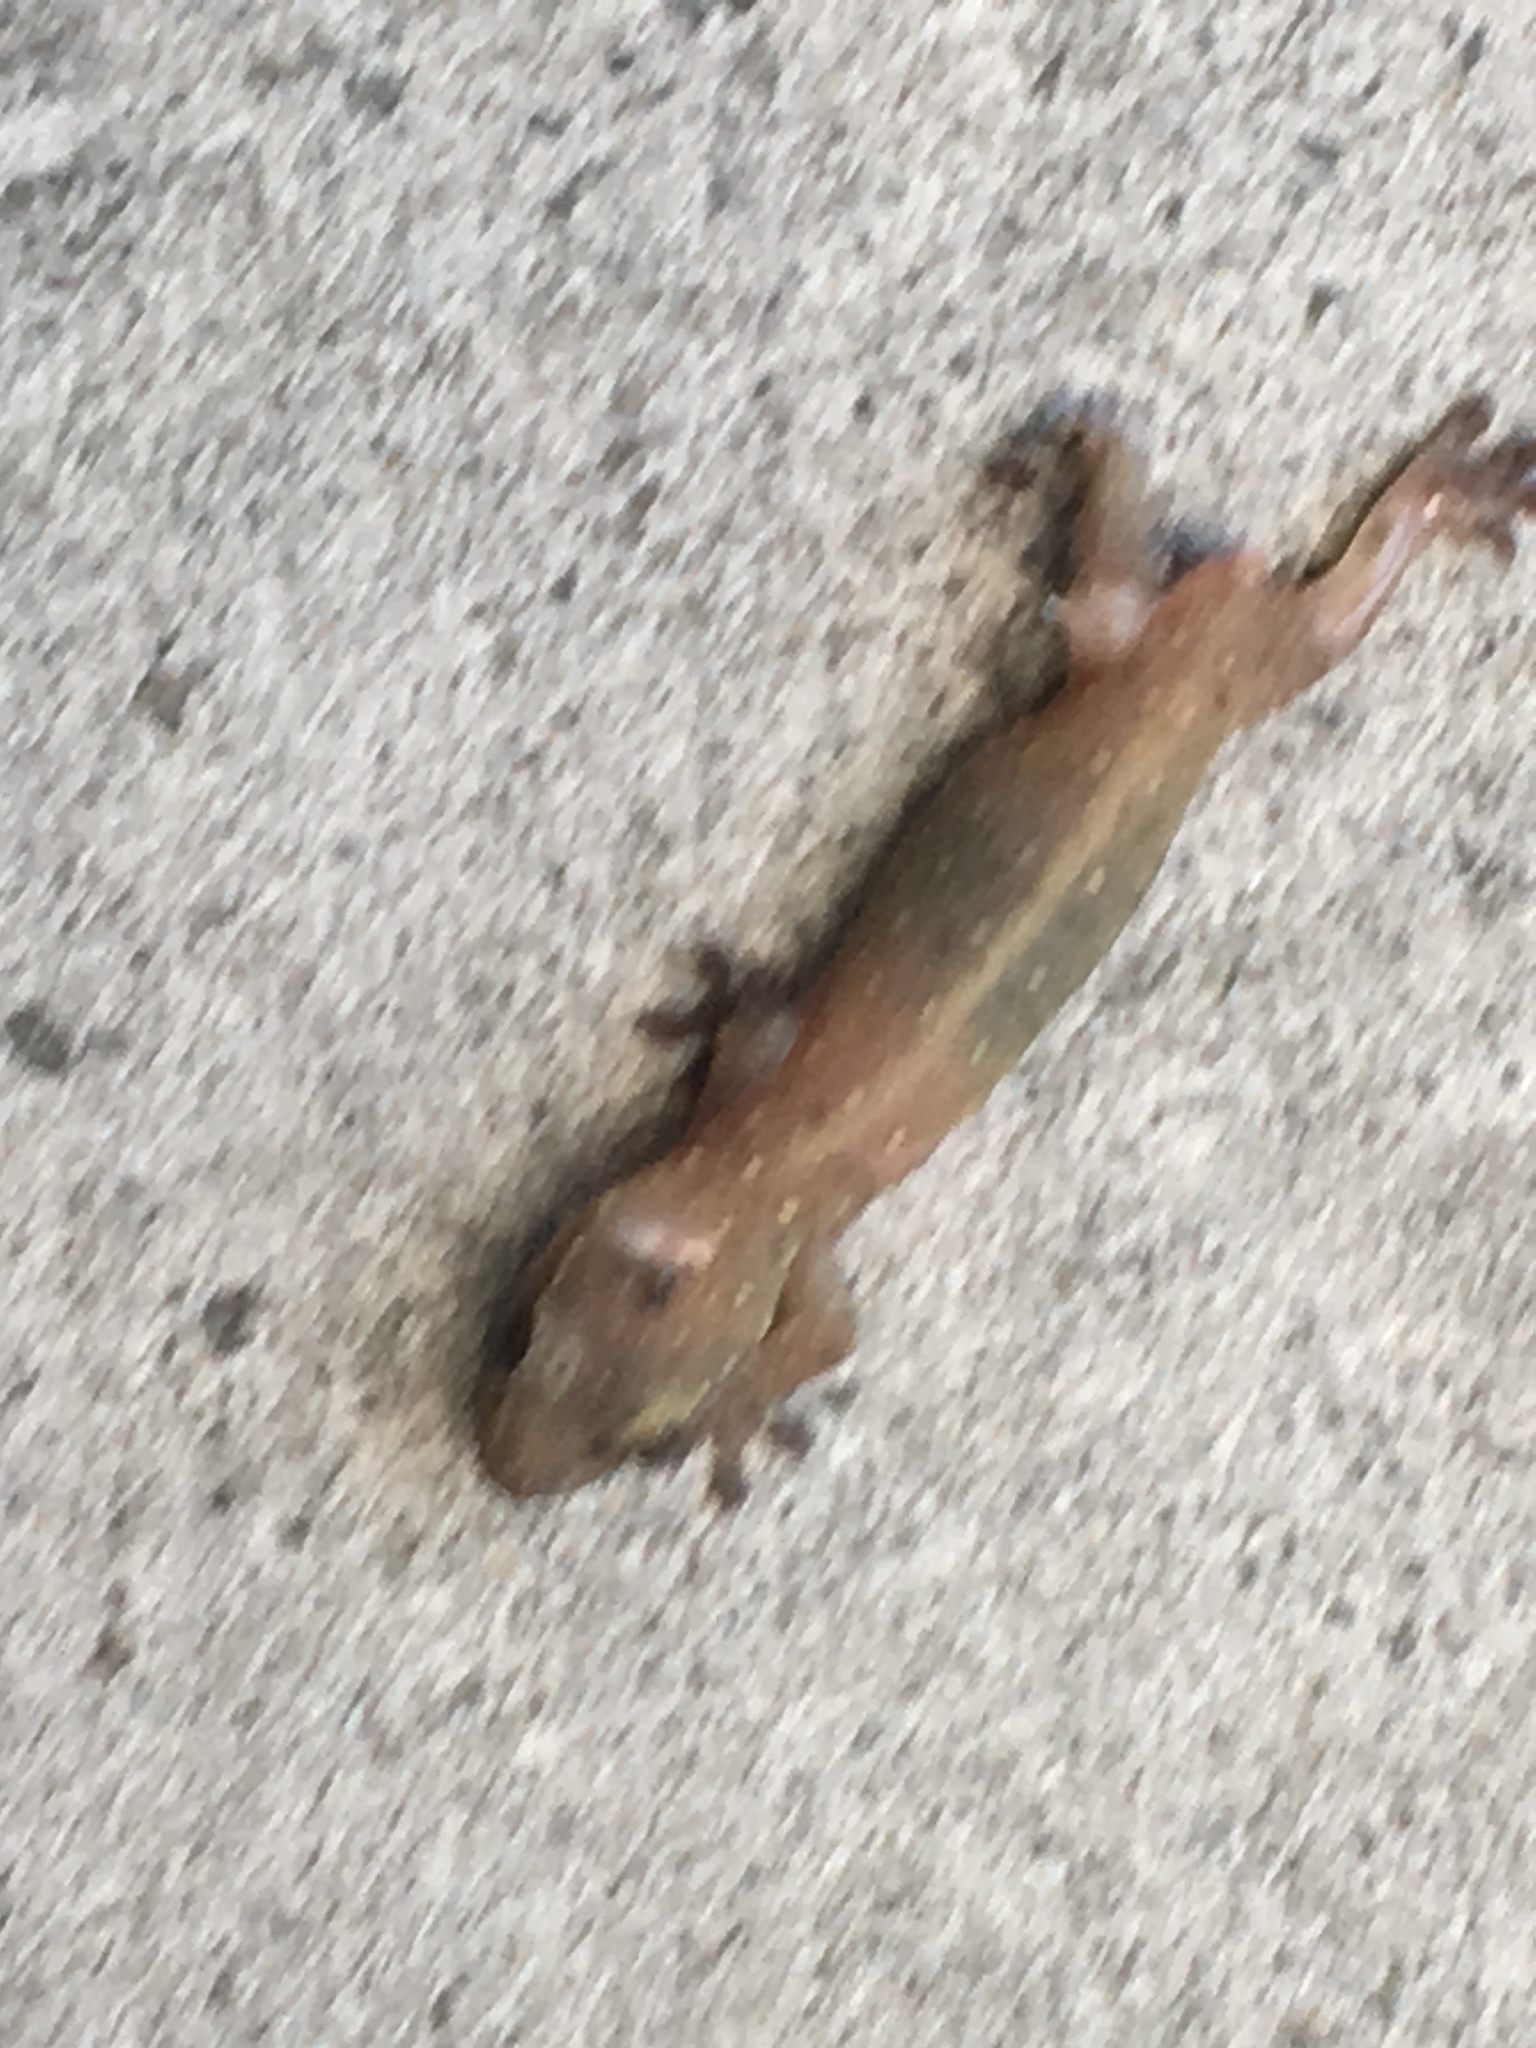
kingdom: Animalia
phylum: Chordata
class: Squamata
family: Gekkonidae
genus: Gehyra
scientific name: Gehyra mutilata
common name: Stump-toed gecko
